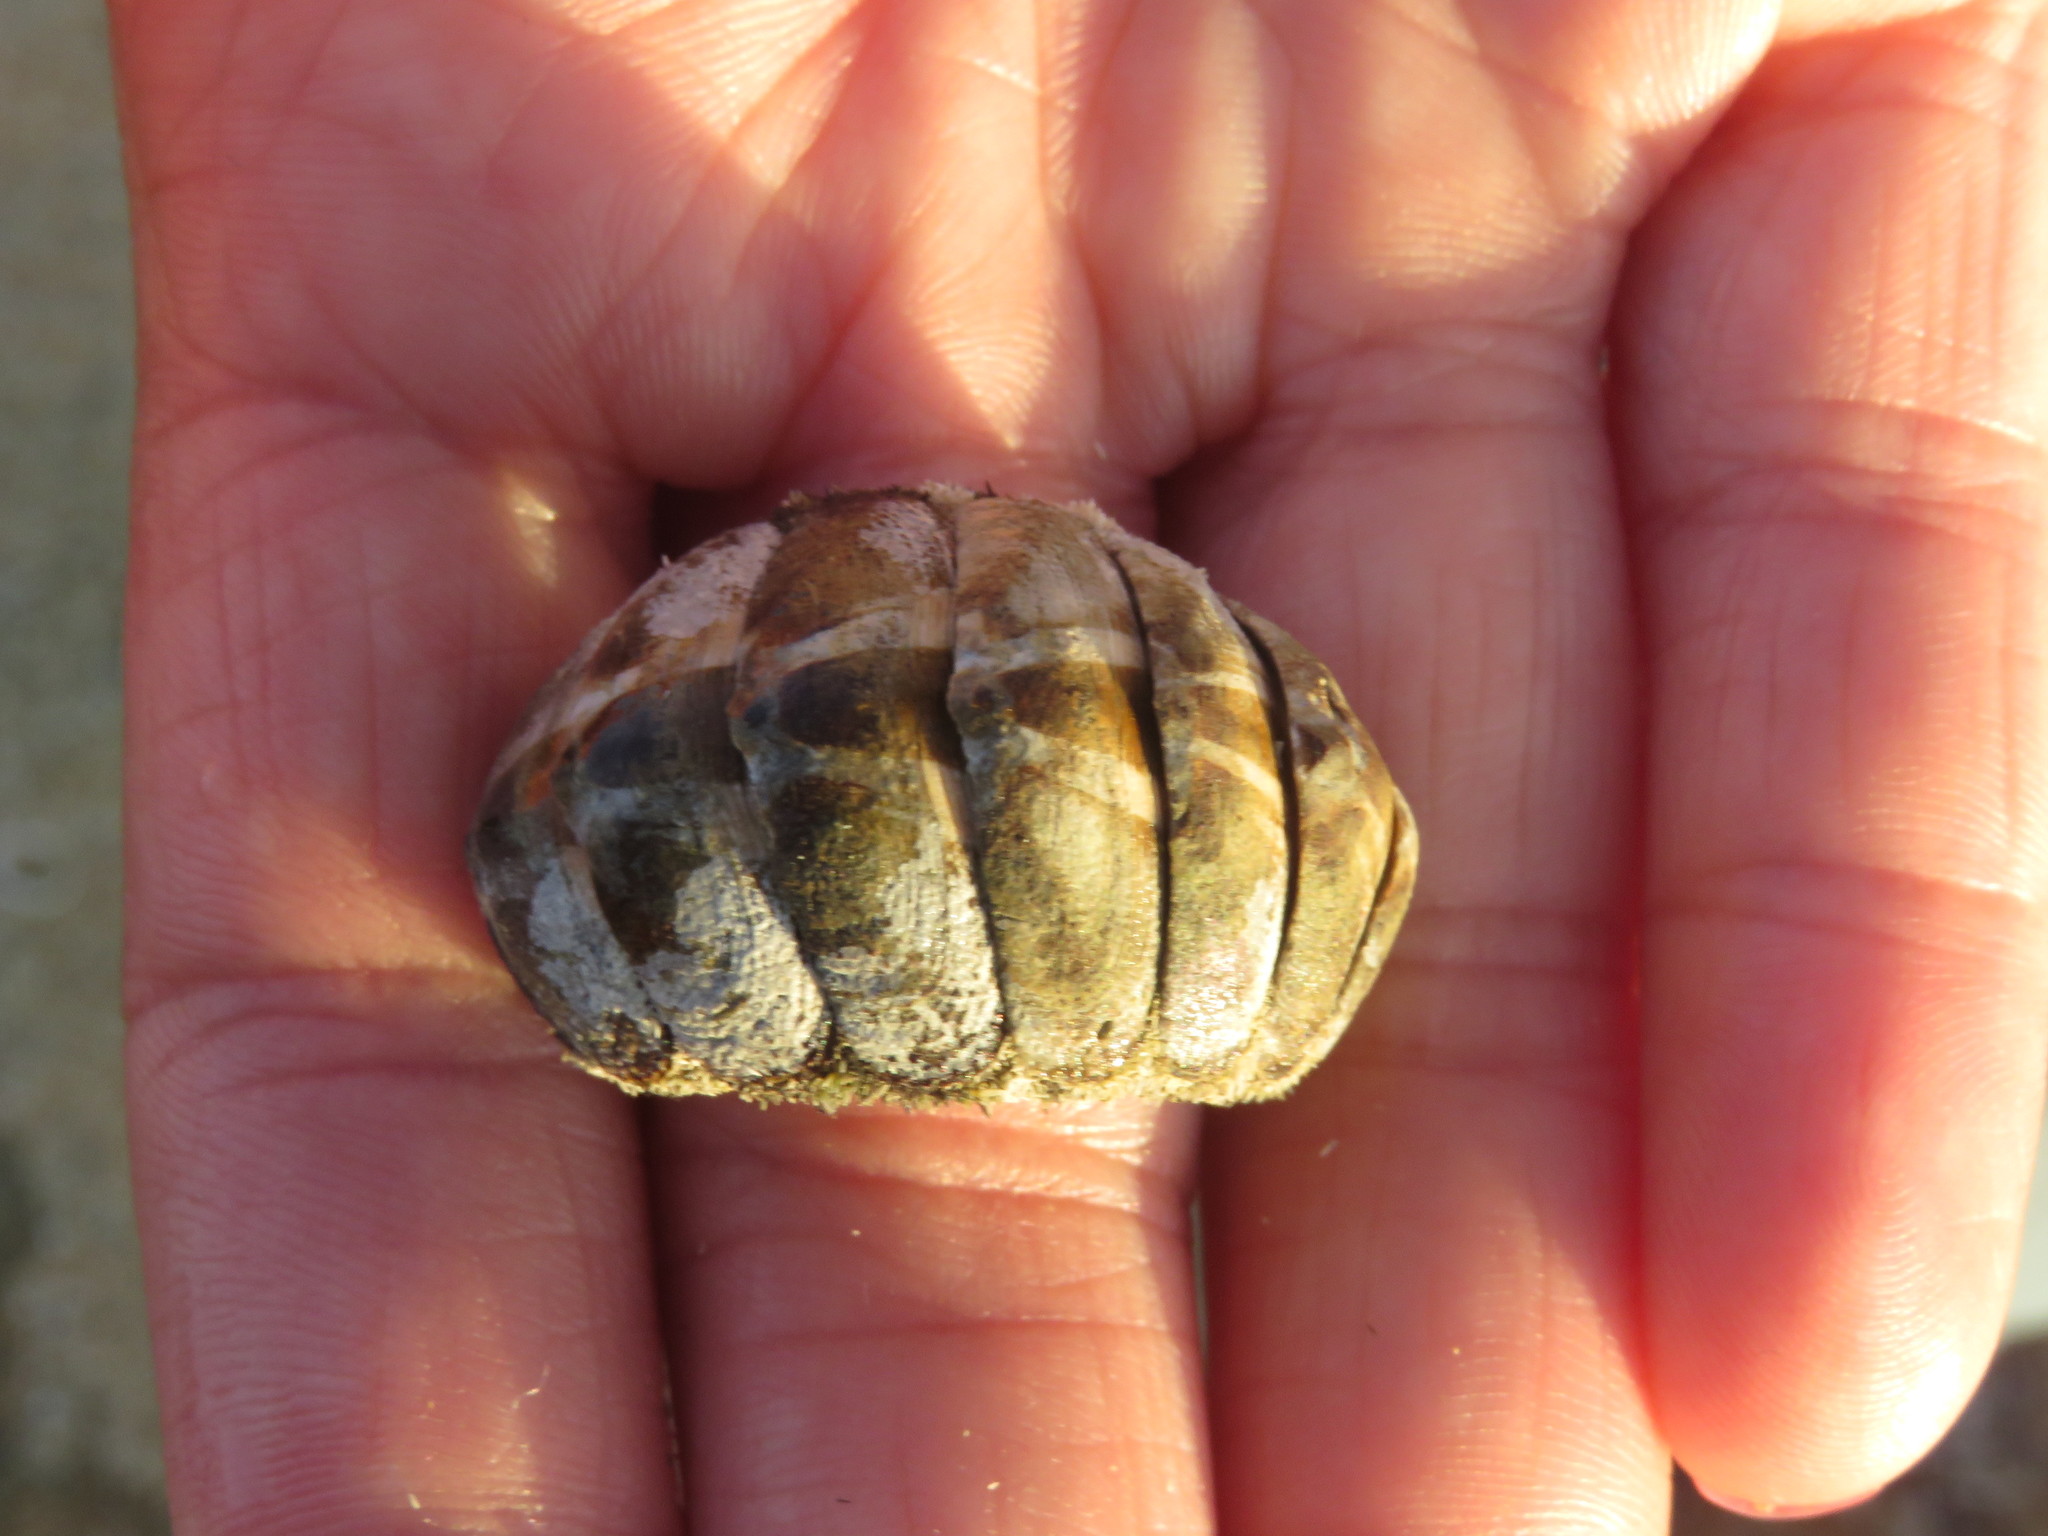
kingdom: Animalia
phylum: Mollusca
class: Polyplacophora
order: Chitonida
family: Chitonidae
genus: Acanthopleura
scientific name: Acanthopleura granulata
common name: West indian fuzzy chiton
